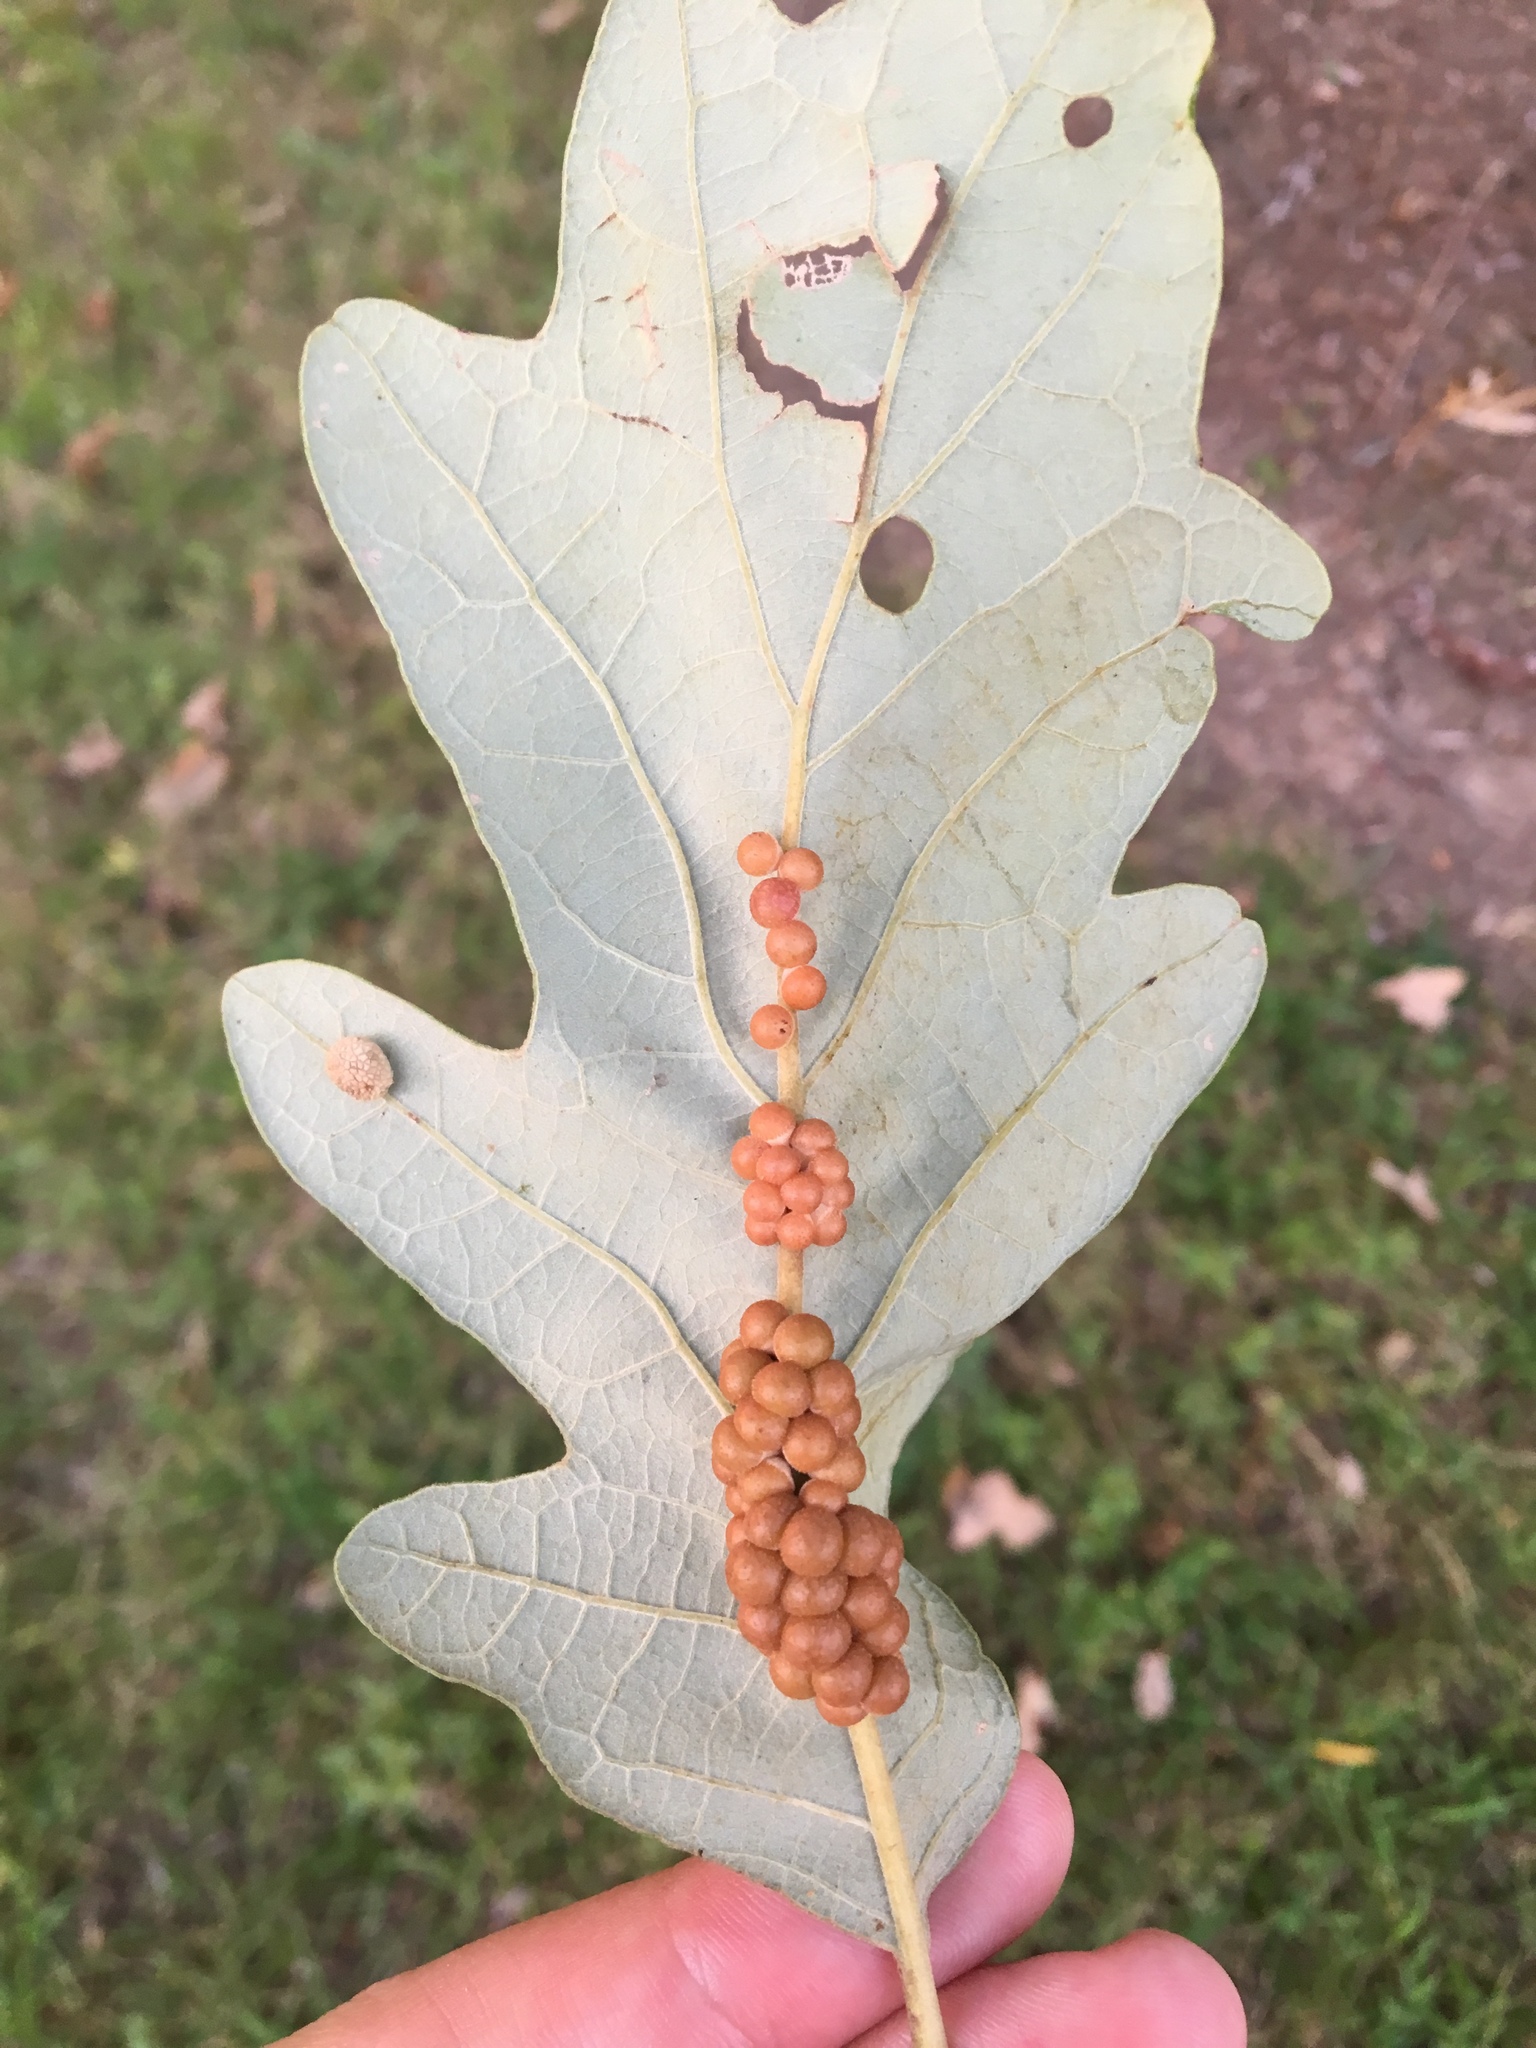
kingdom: Animalia
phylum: Arthropoda
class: Insecta
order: Hymenoptera
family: Cynipidae
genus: Andricus
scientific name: Andricus
